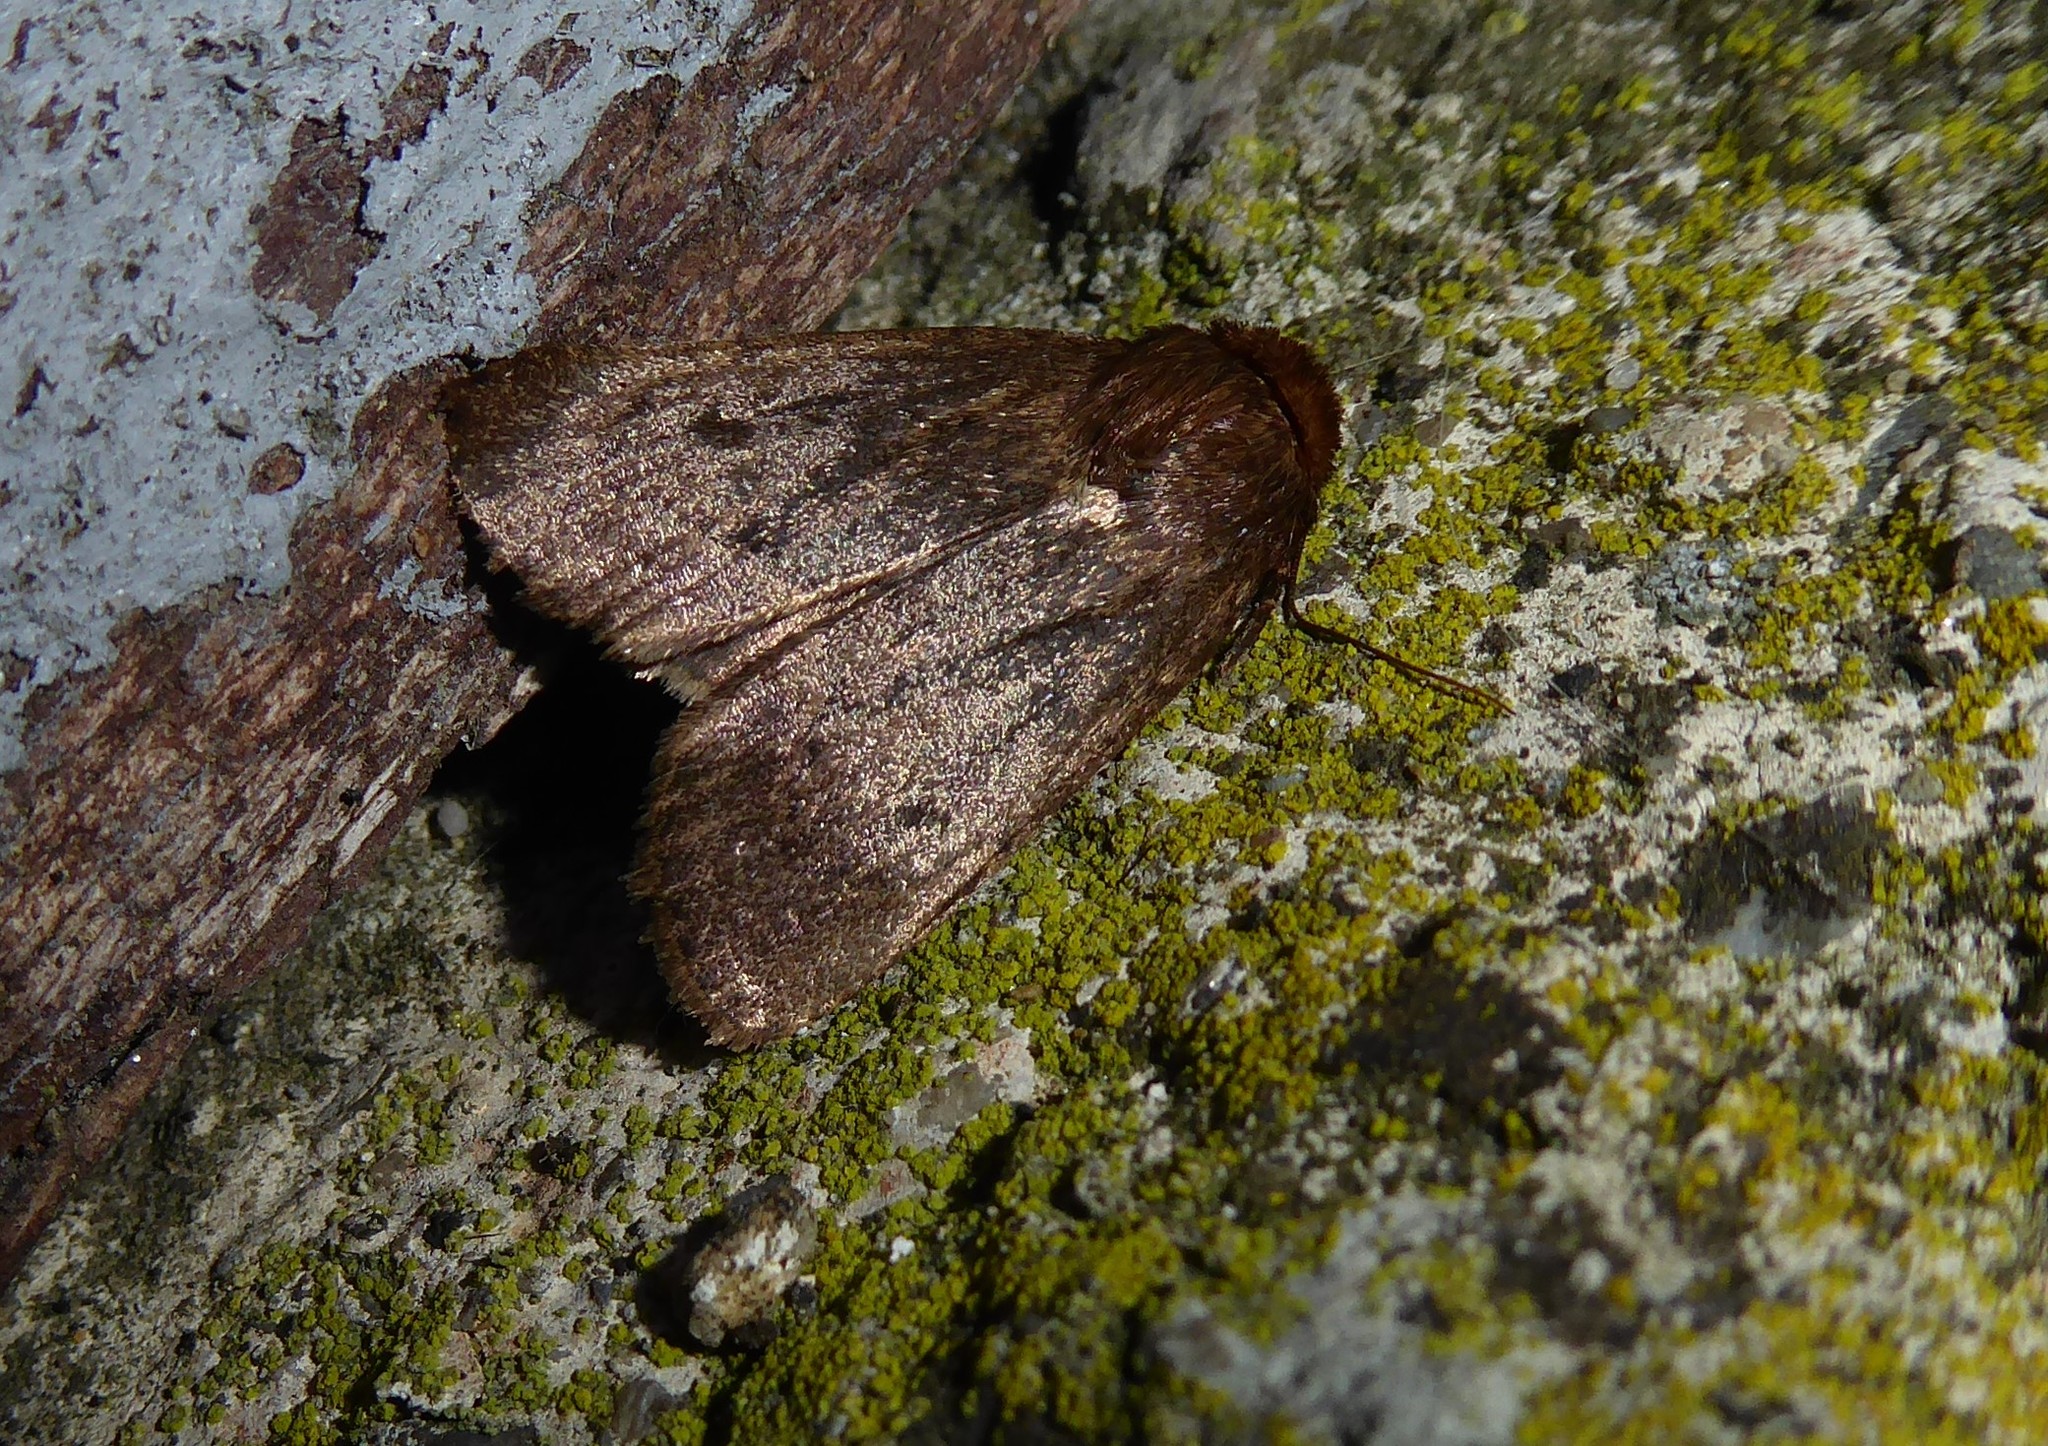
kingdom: Animalia
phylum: Arthropoda
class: Insecta
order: Lepidoptera
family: Noctuidae
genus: Bityla
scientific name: Bityla defigurata
